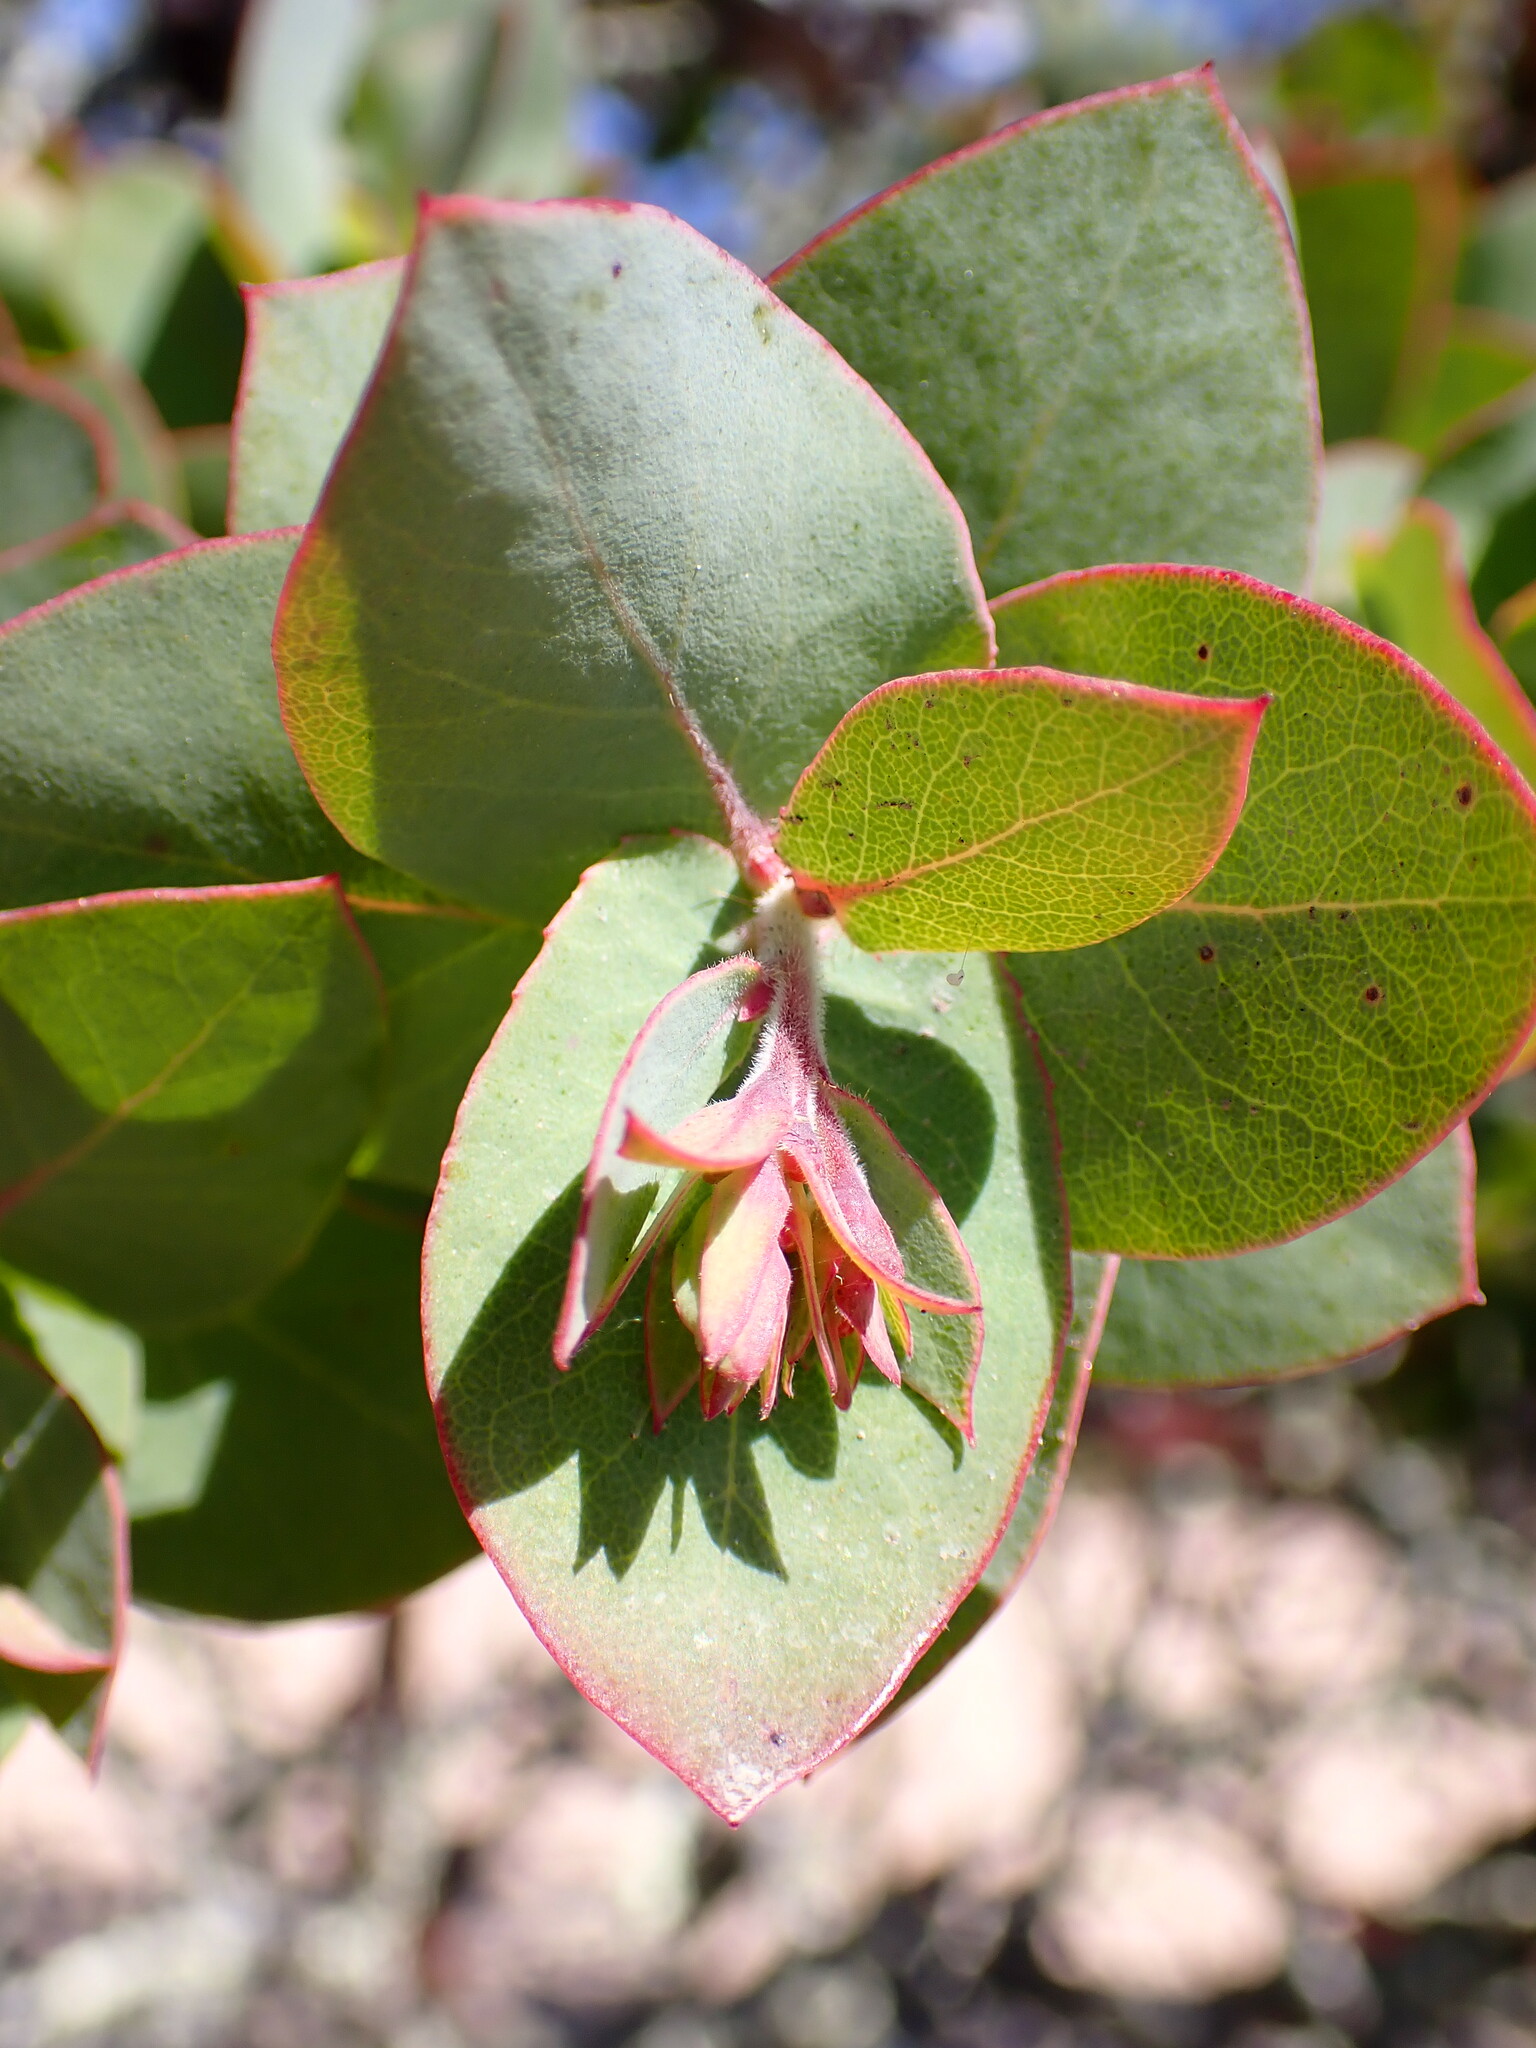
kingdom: Plantae
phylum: Tracheophyta
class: Magnoliopsida
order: Ericales
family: Ericaceae
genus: Arctostaphylos
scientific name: Arctostaphylos pallida
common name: Pallid manzanita
